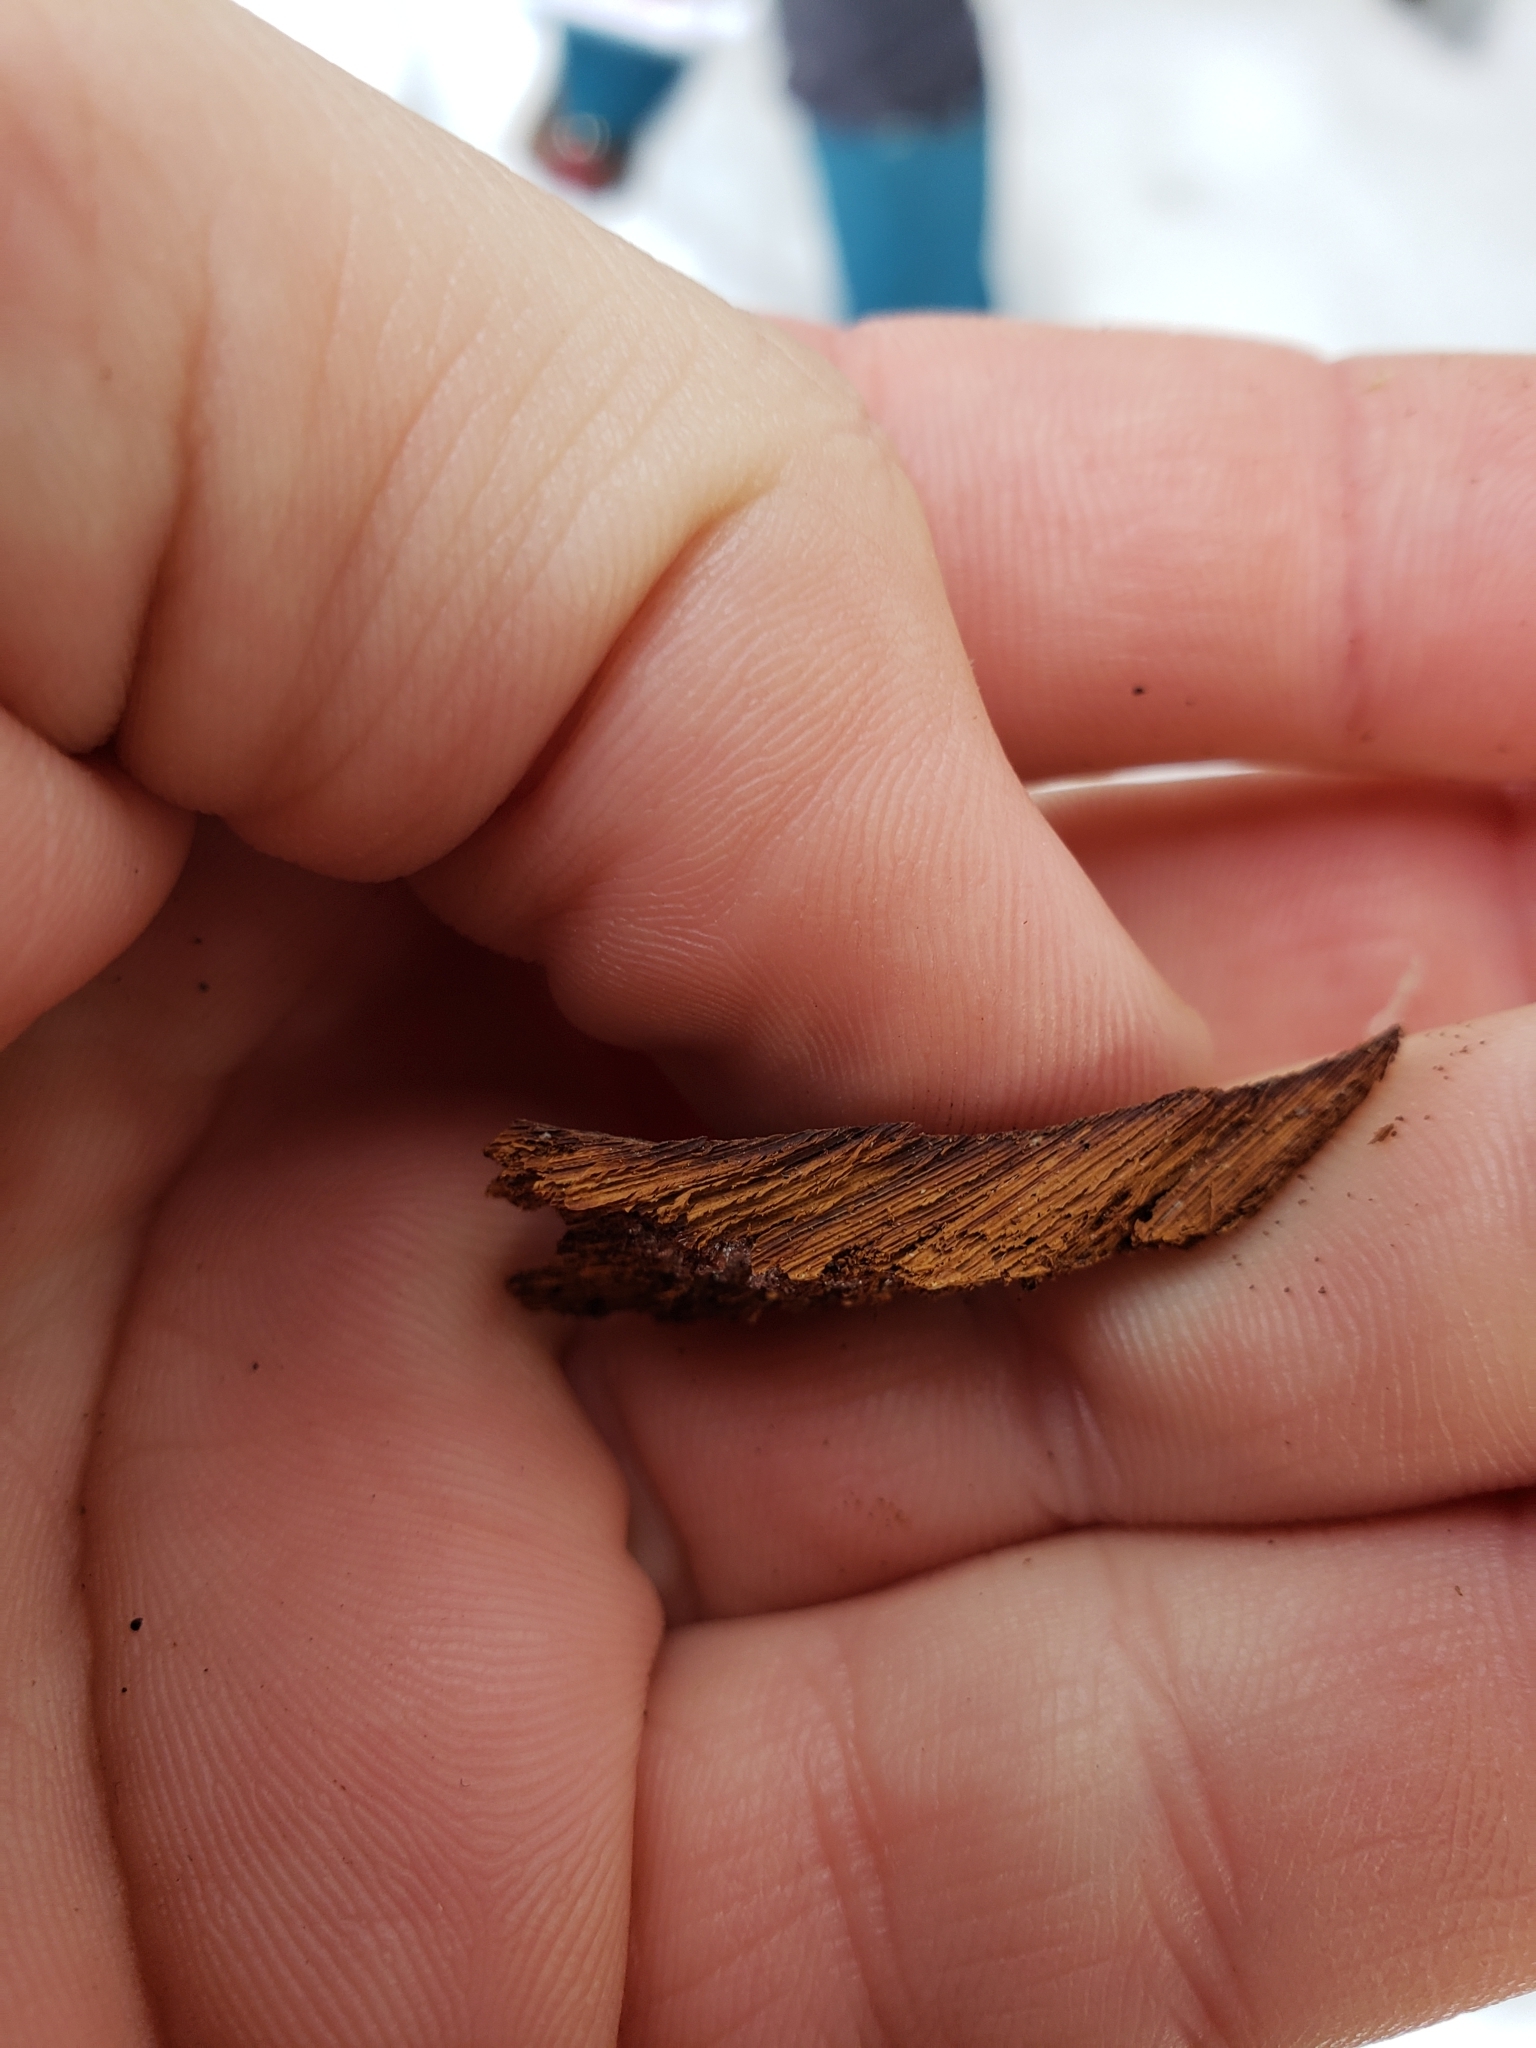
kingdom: Fungi
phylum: Basidiomycota
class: Agaricomycetes
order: Hymenochaetales
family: Hymenochaetaceae
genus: Inonotus
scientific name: Inonotus obliquus
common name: Chaga
